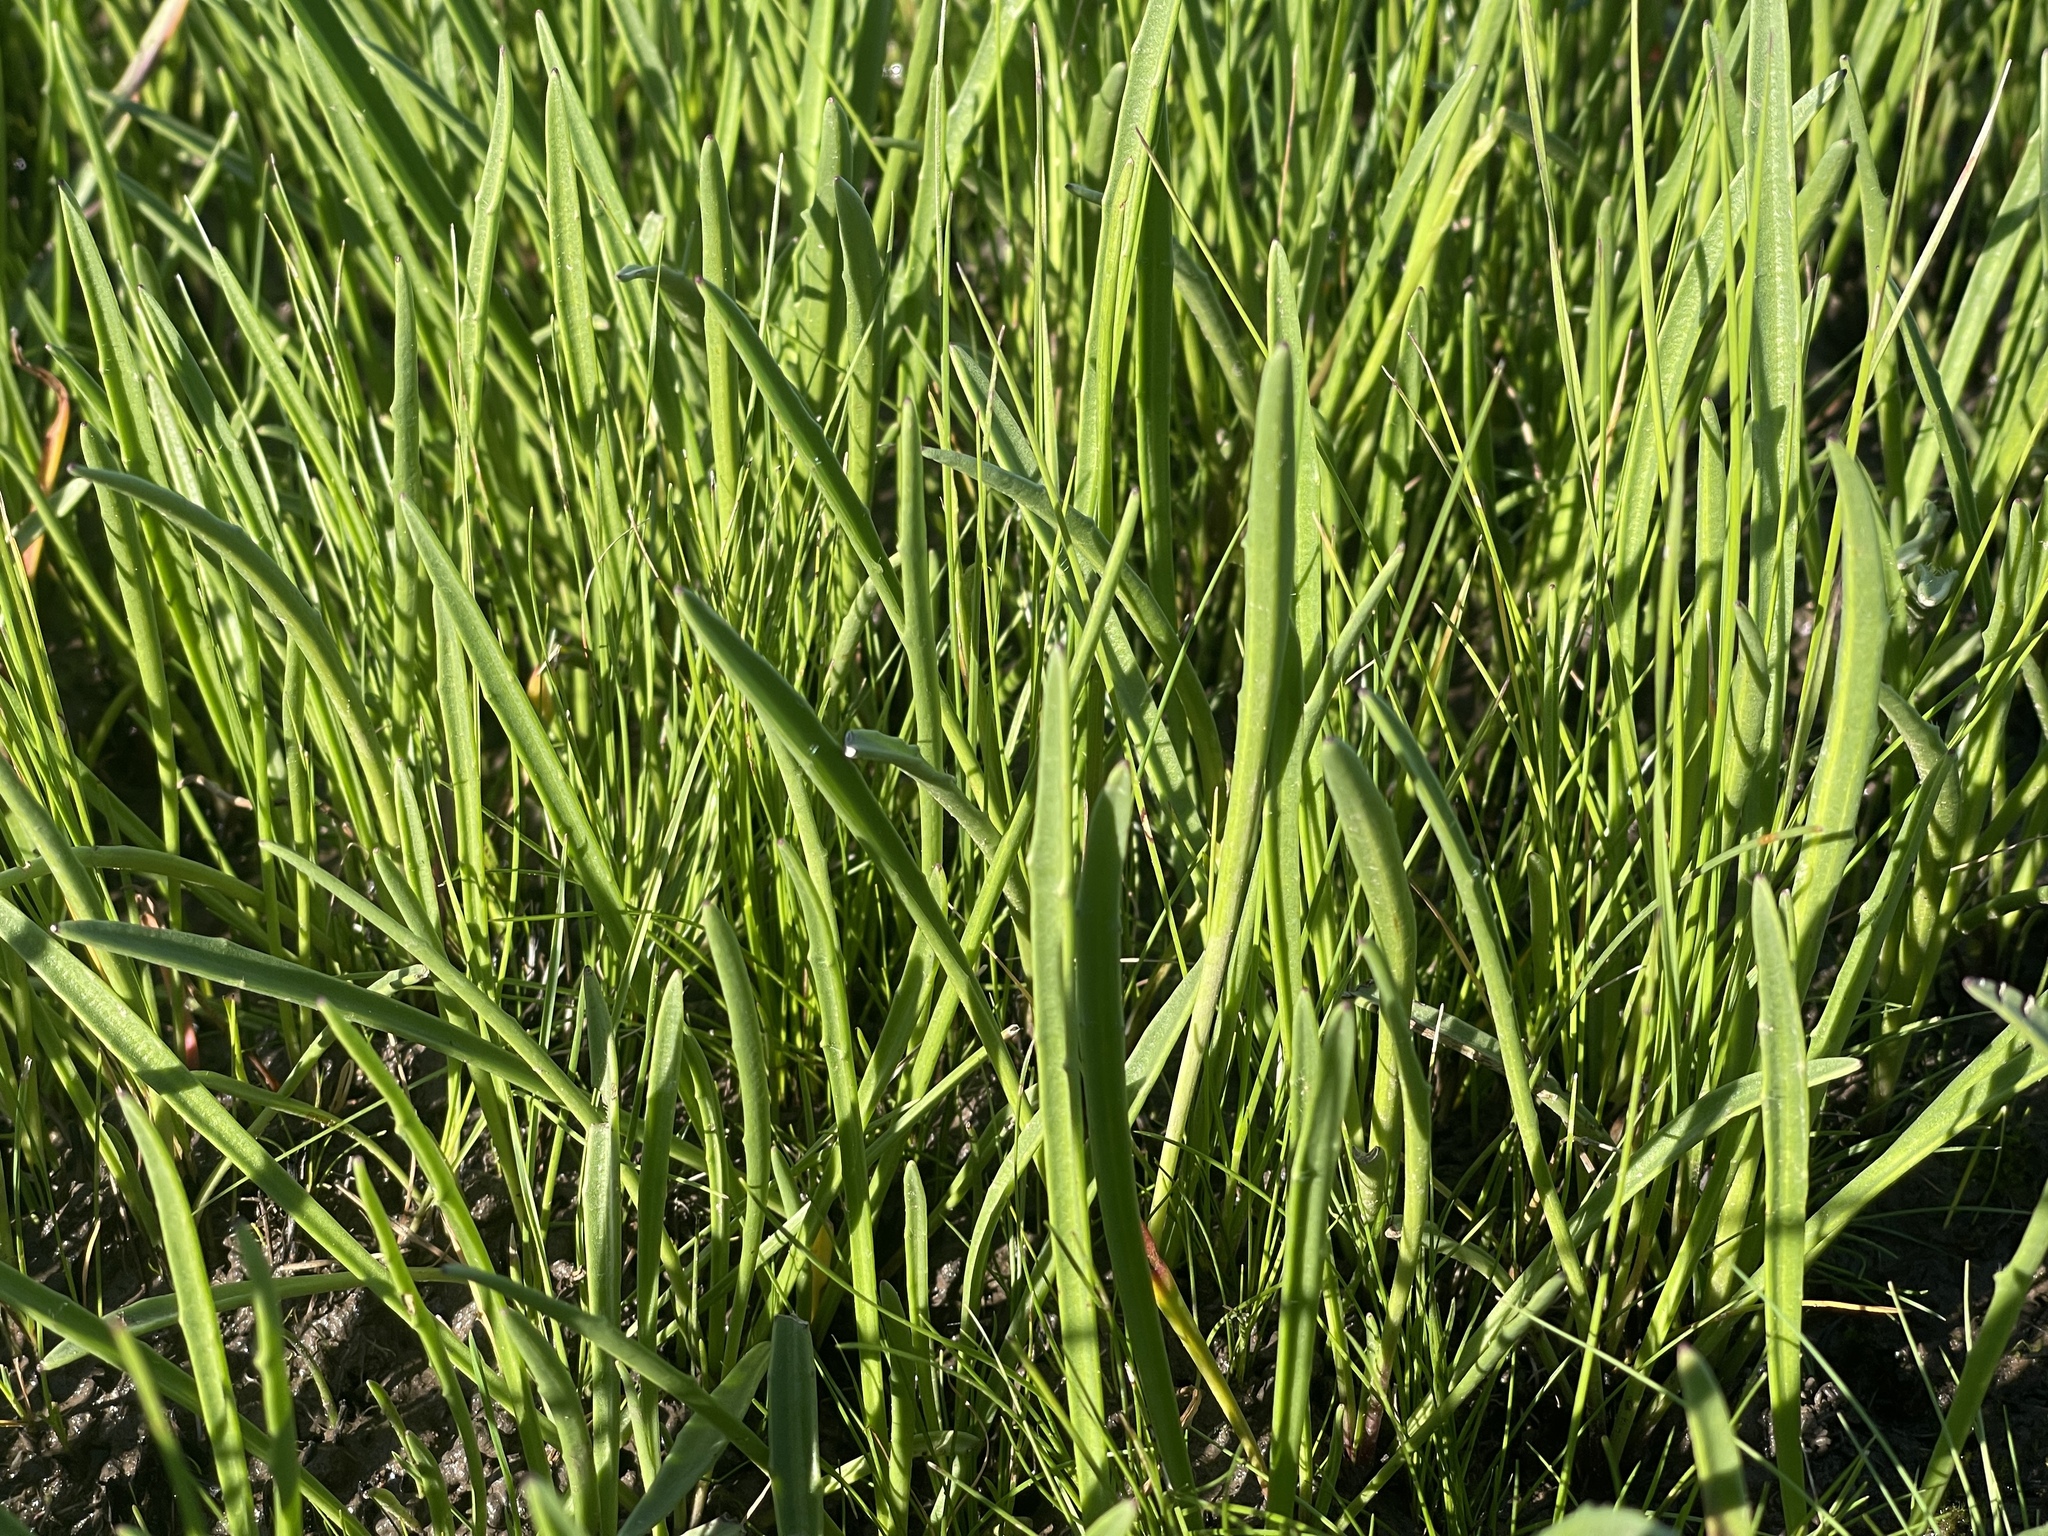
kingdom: Plantae
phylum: Tracheophyta
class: Magnoliopsida
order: Lamiales
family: Plantaginaceae
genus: Plantago
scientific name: Plantago gaudichaudii
